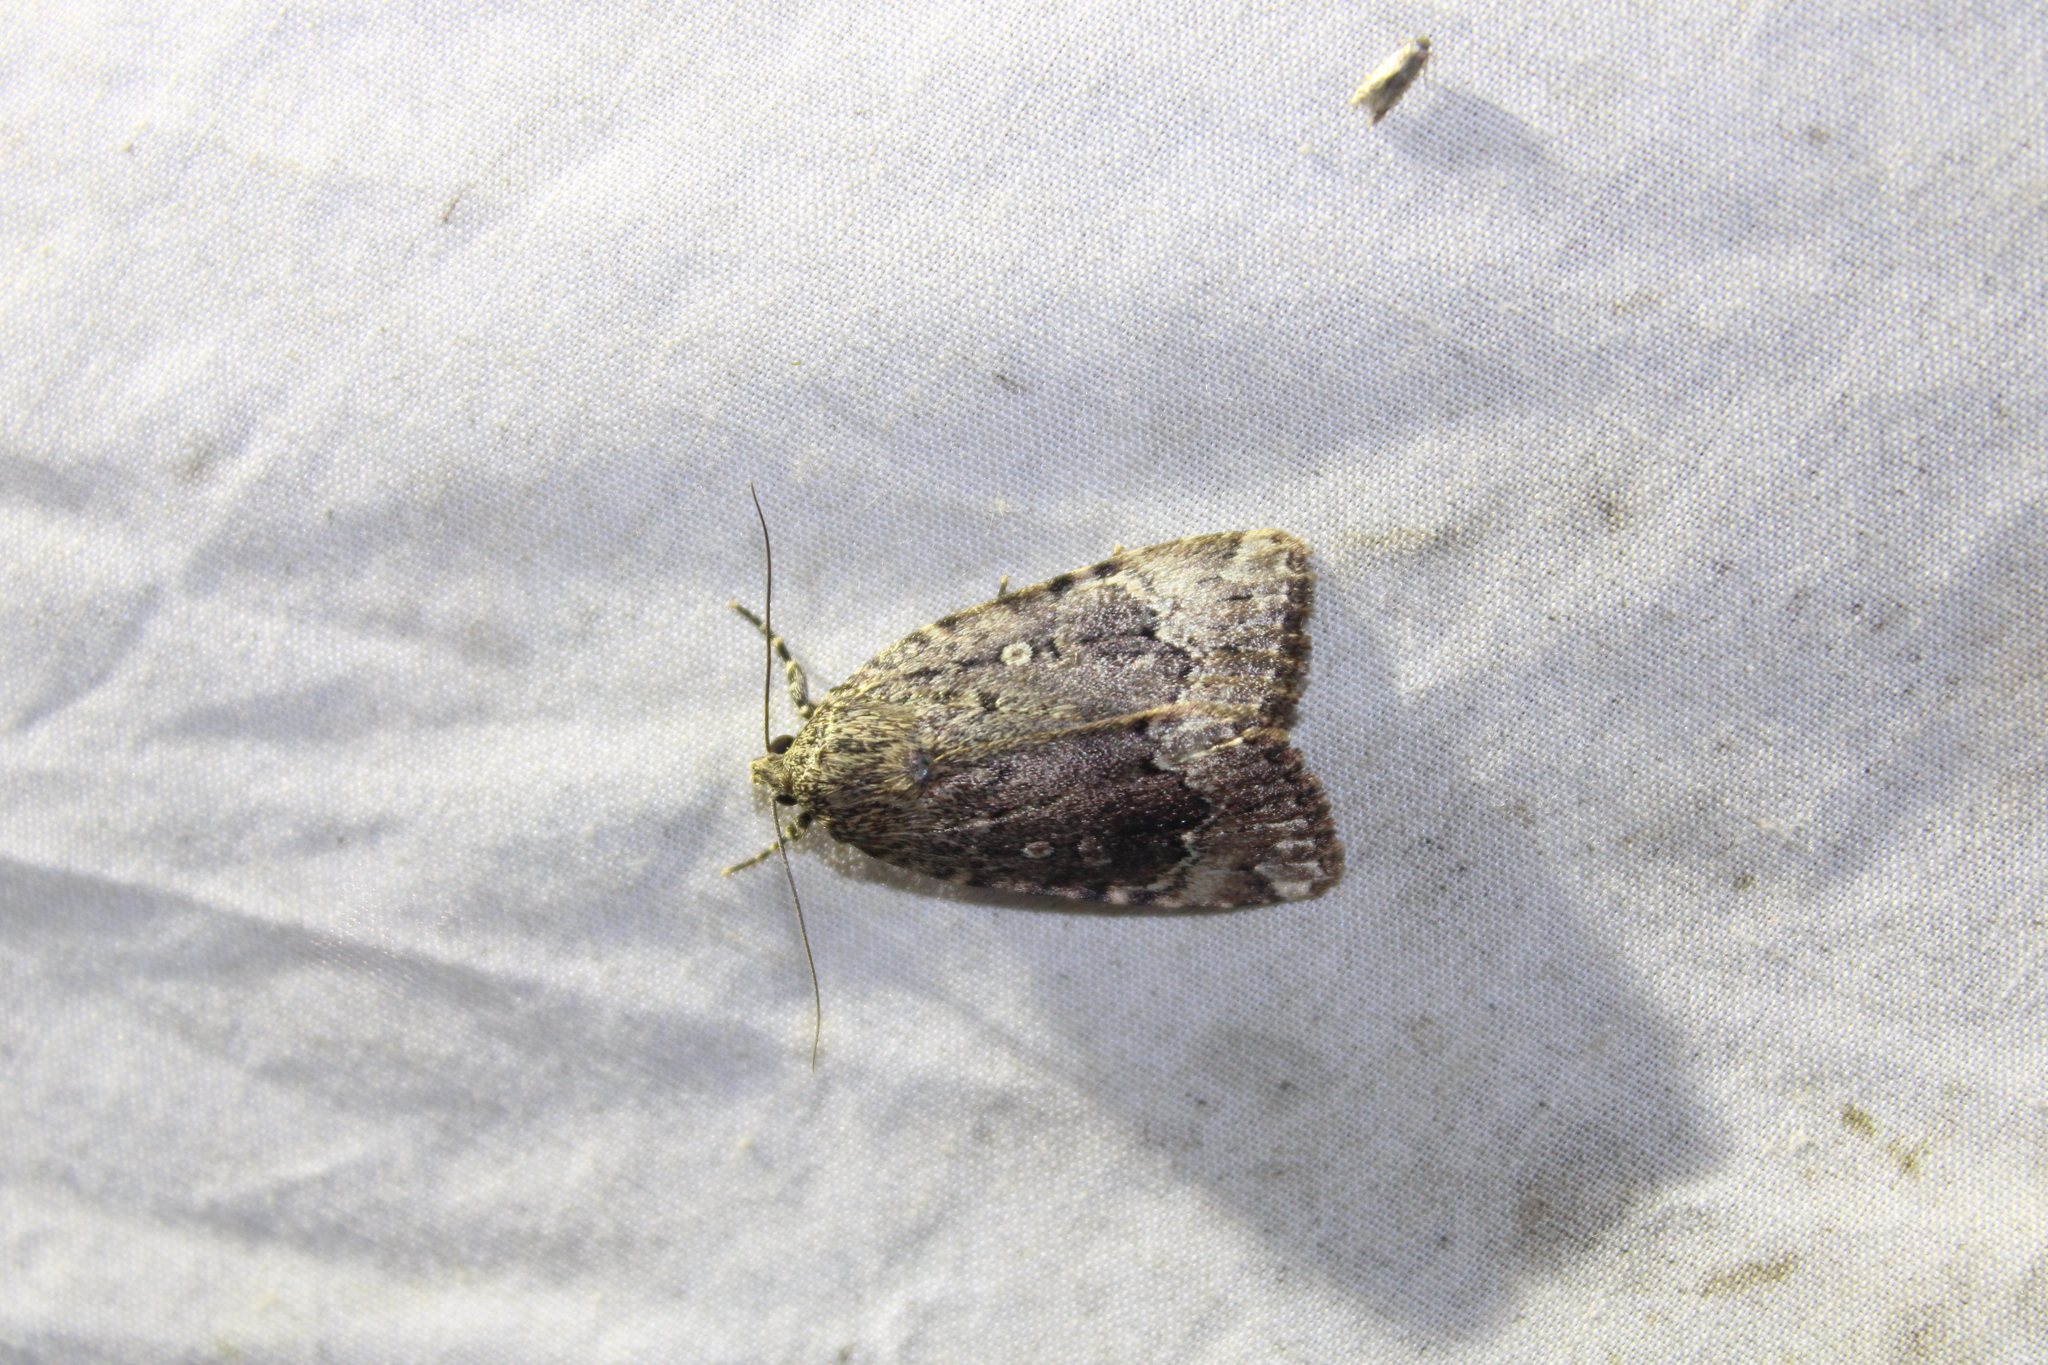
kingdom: Animalia
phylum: Arthropoda
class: Insecta
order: Lepidoptera
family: Noctuidae
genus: Amphipyra
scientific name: Amphipyra pyramidoides
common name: American copper underwing
